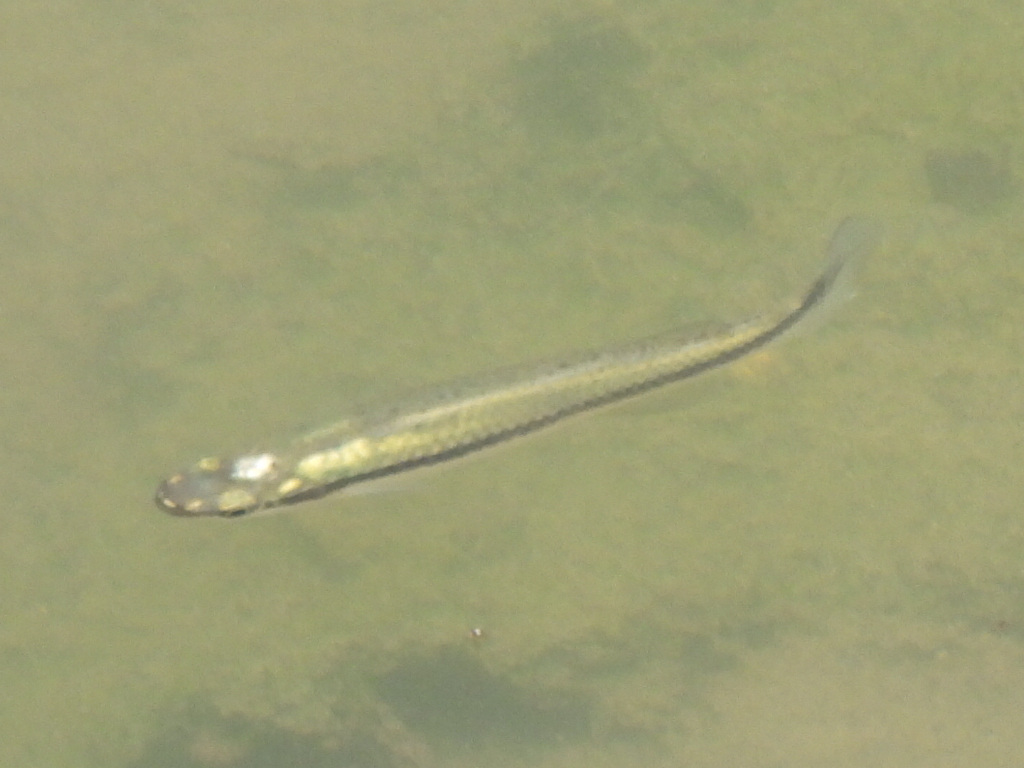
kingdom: Animalia
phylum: Chordata
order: Cyprinodontiformes
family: Fundulidae
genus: Fundulus
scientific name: Fundulus notatus
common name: Blackstripe topminnow
